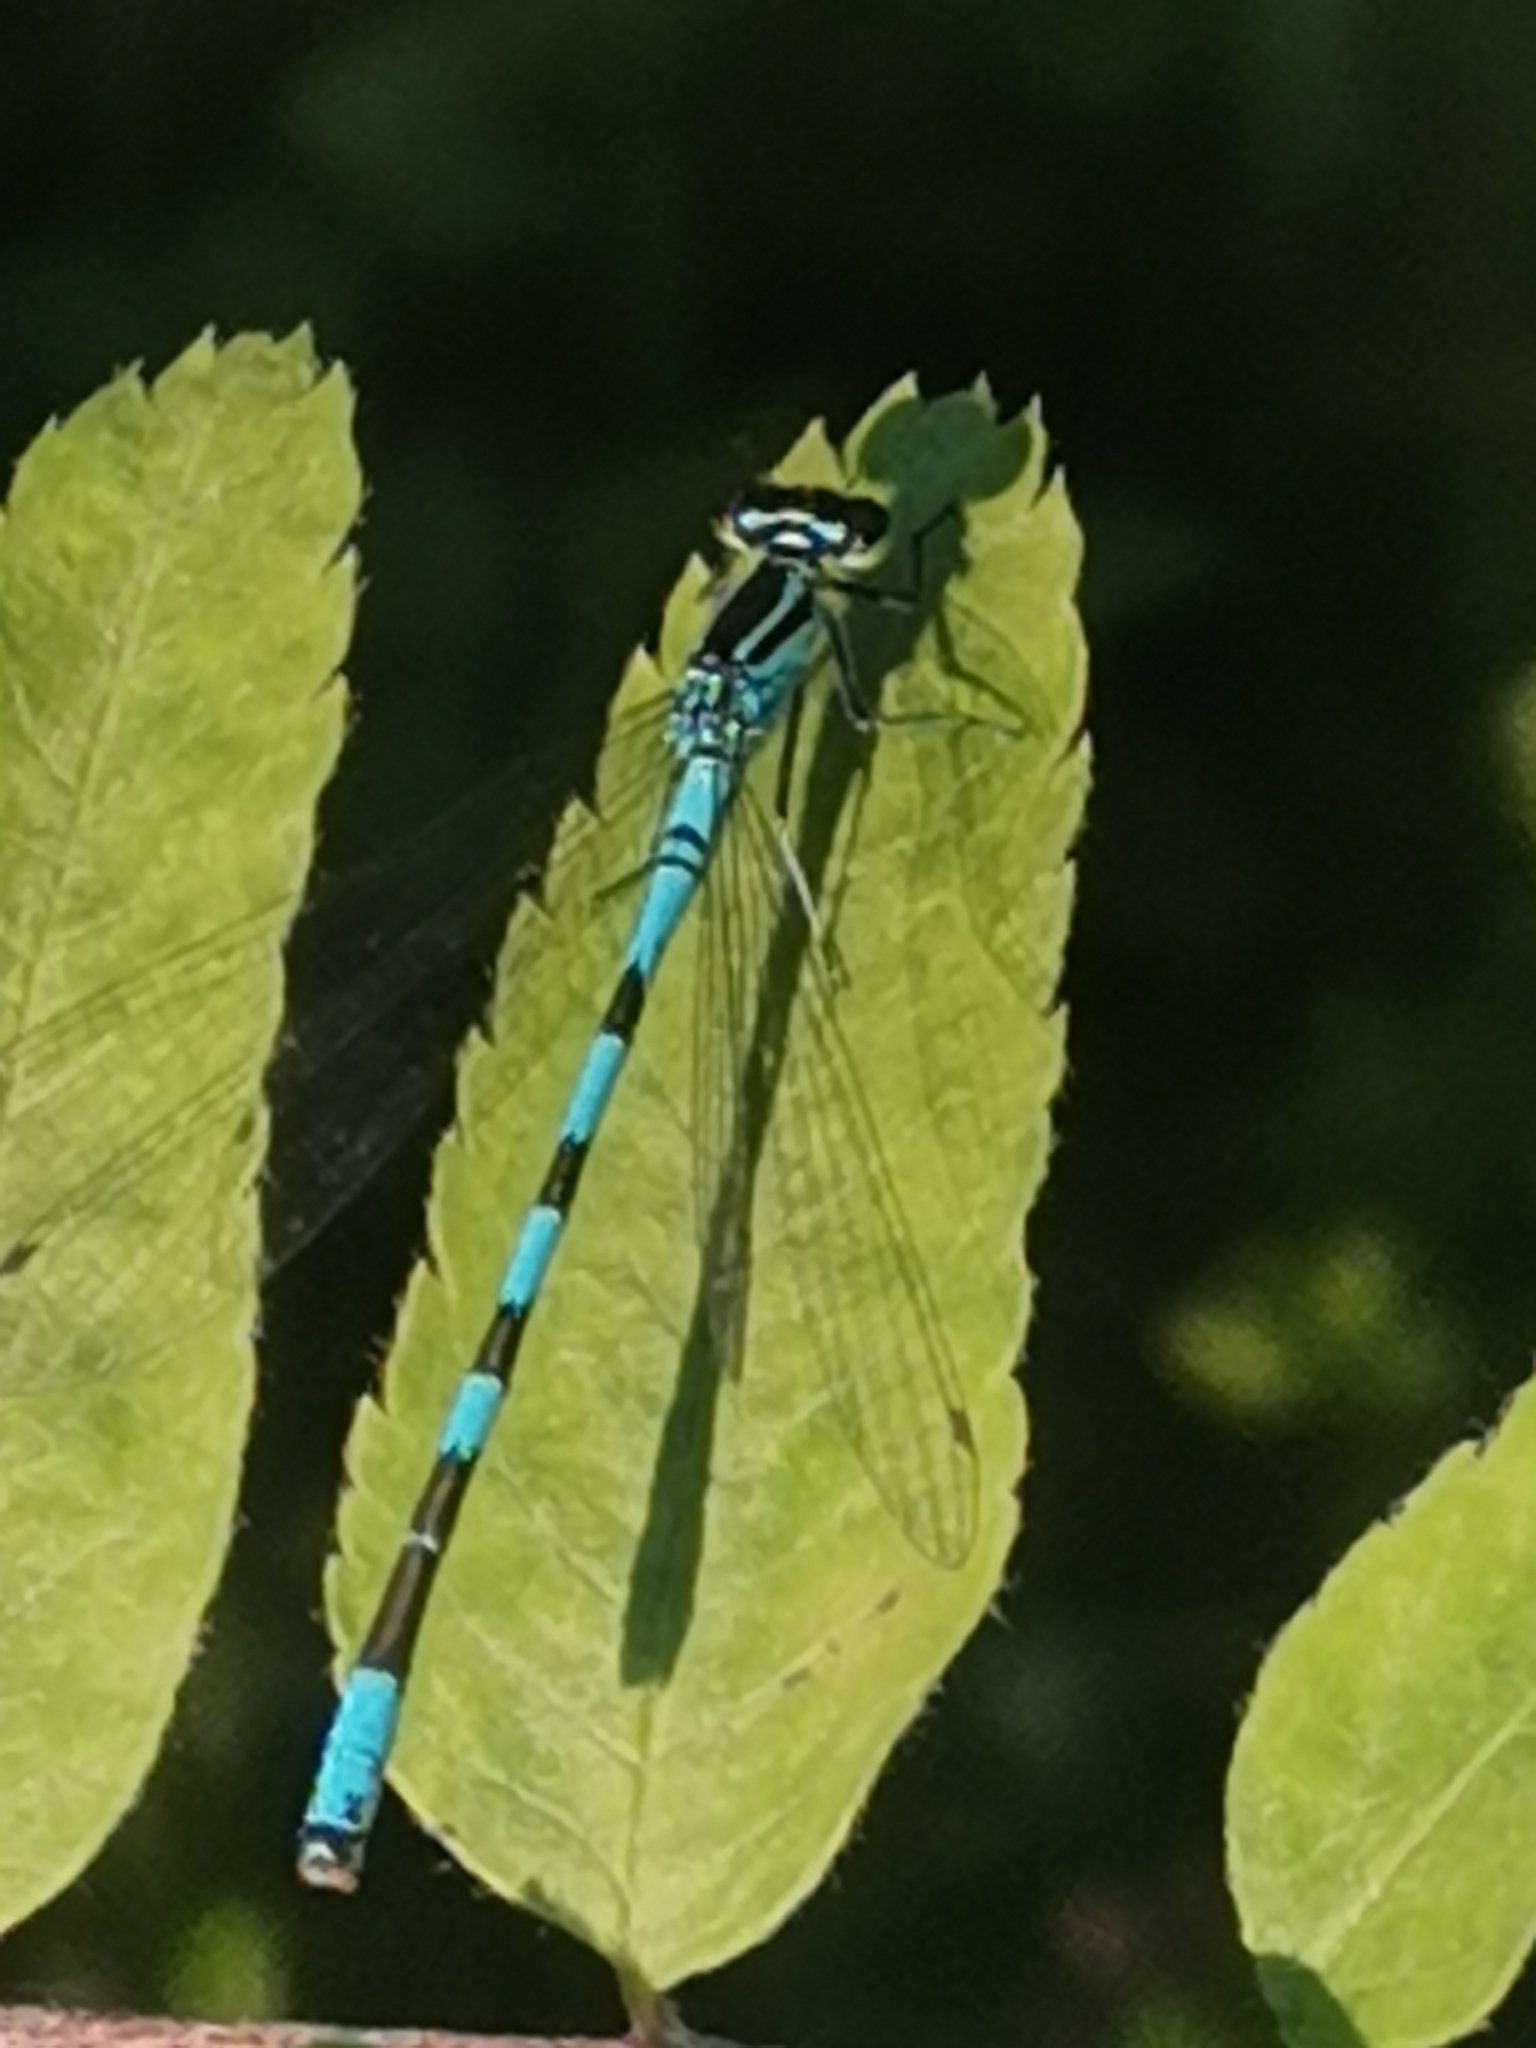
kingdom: Animalia
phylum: Arthropoda
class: Insecta
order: Odonata
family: Coenagrionidae
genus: Coenagrion
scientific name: Coenagrion hastulatum
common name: Spearhead bluet
